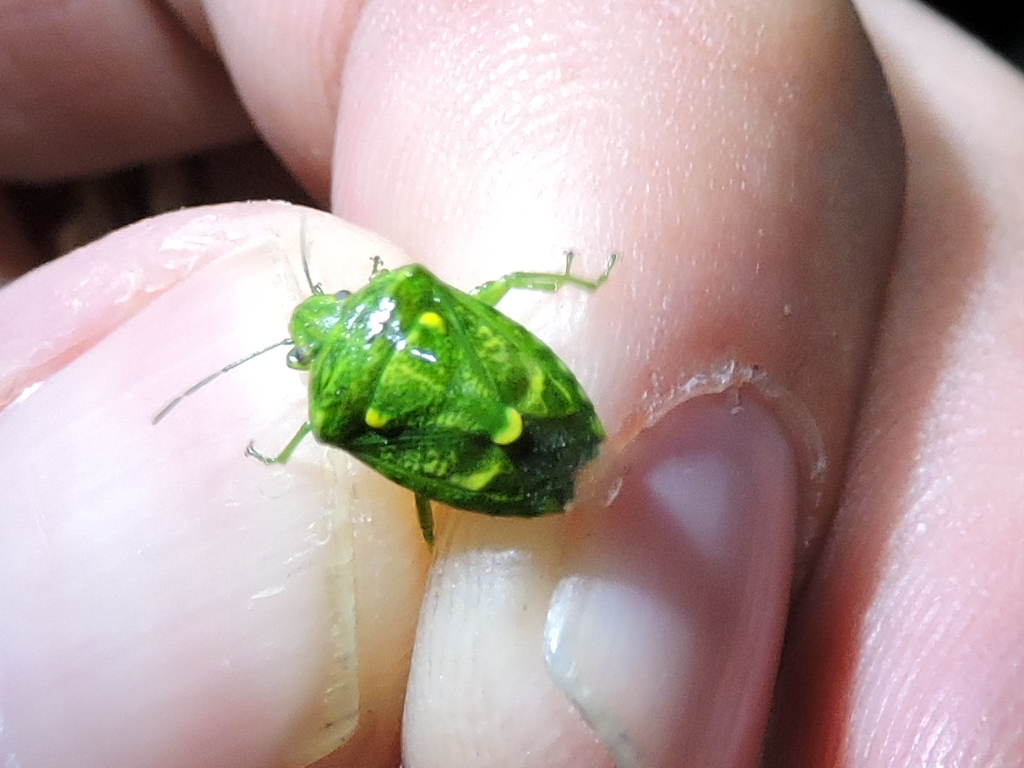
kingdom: Animalia
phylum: Arthropoda
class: Insecta
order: Hemiptera
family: Pentatomidae
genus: Banasa
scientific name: Banasa euchlora
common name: Cedar berry bug
